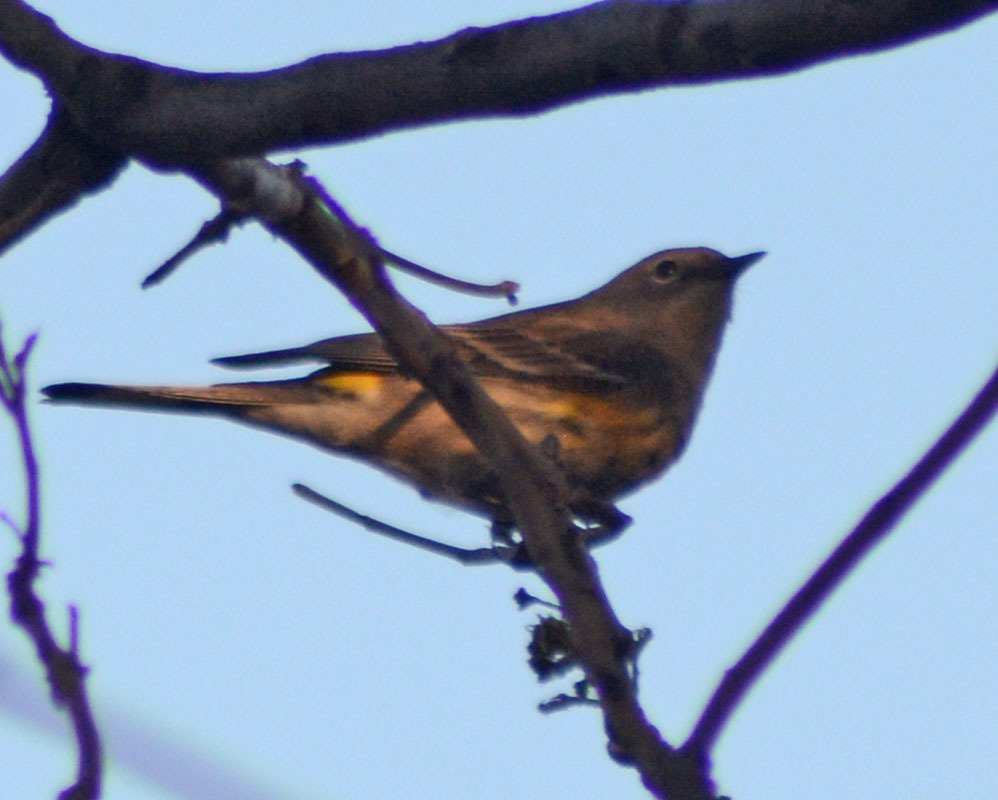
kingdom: Animalia
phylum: Chordata
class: Aves
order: Passeriformes
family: Parulidae
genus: Setophaga
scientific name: Setophaga coronata
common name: Myrtle warbler
